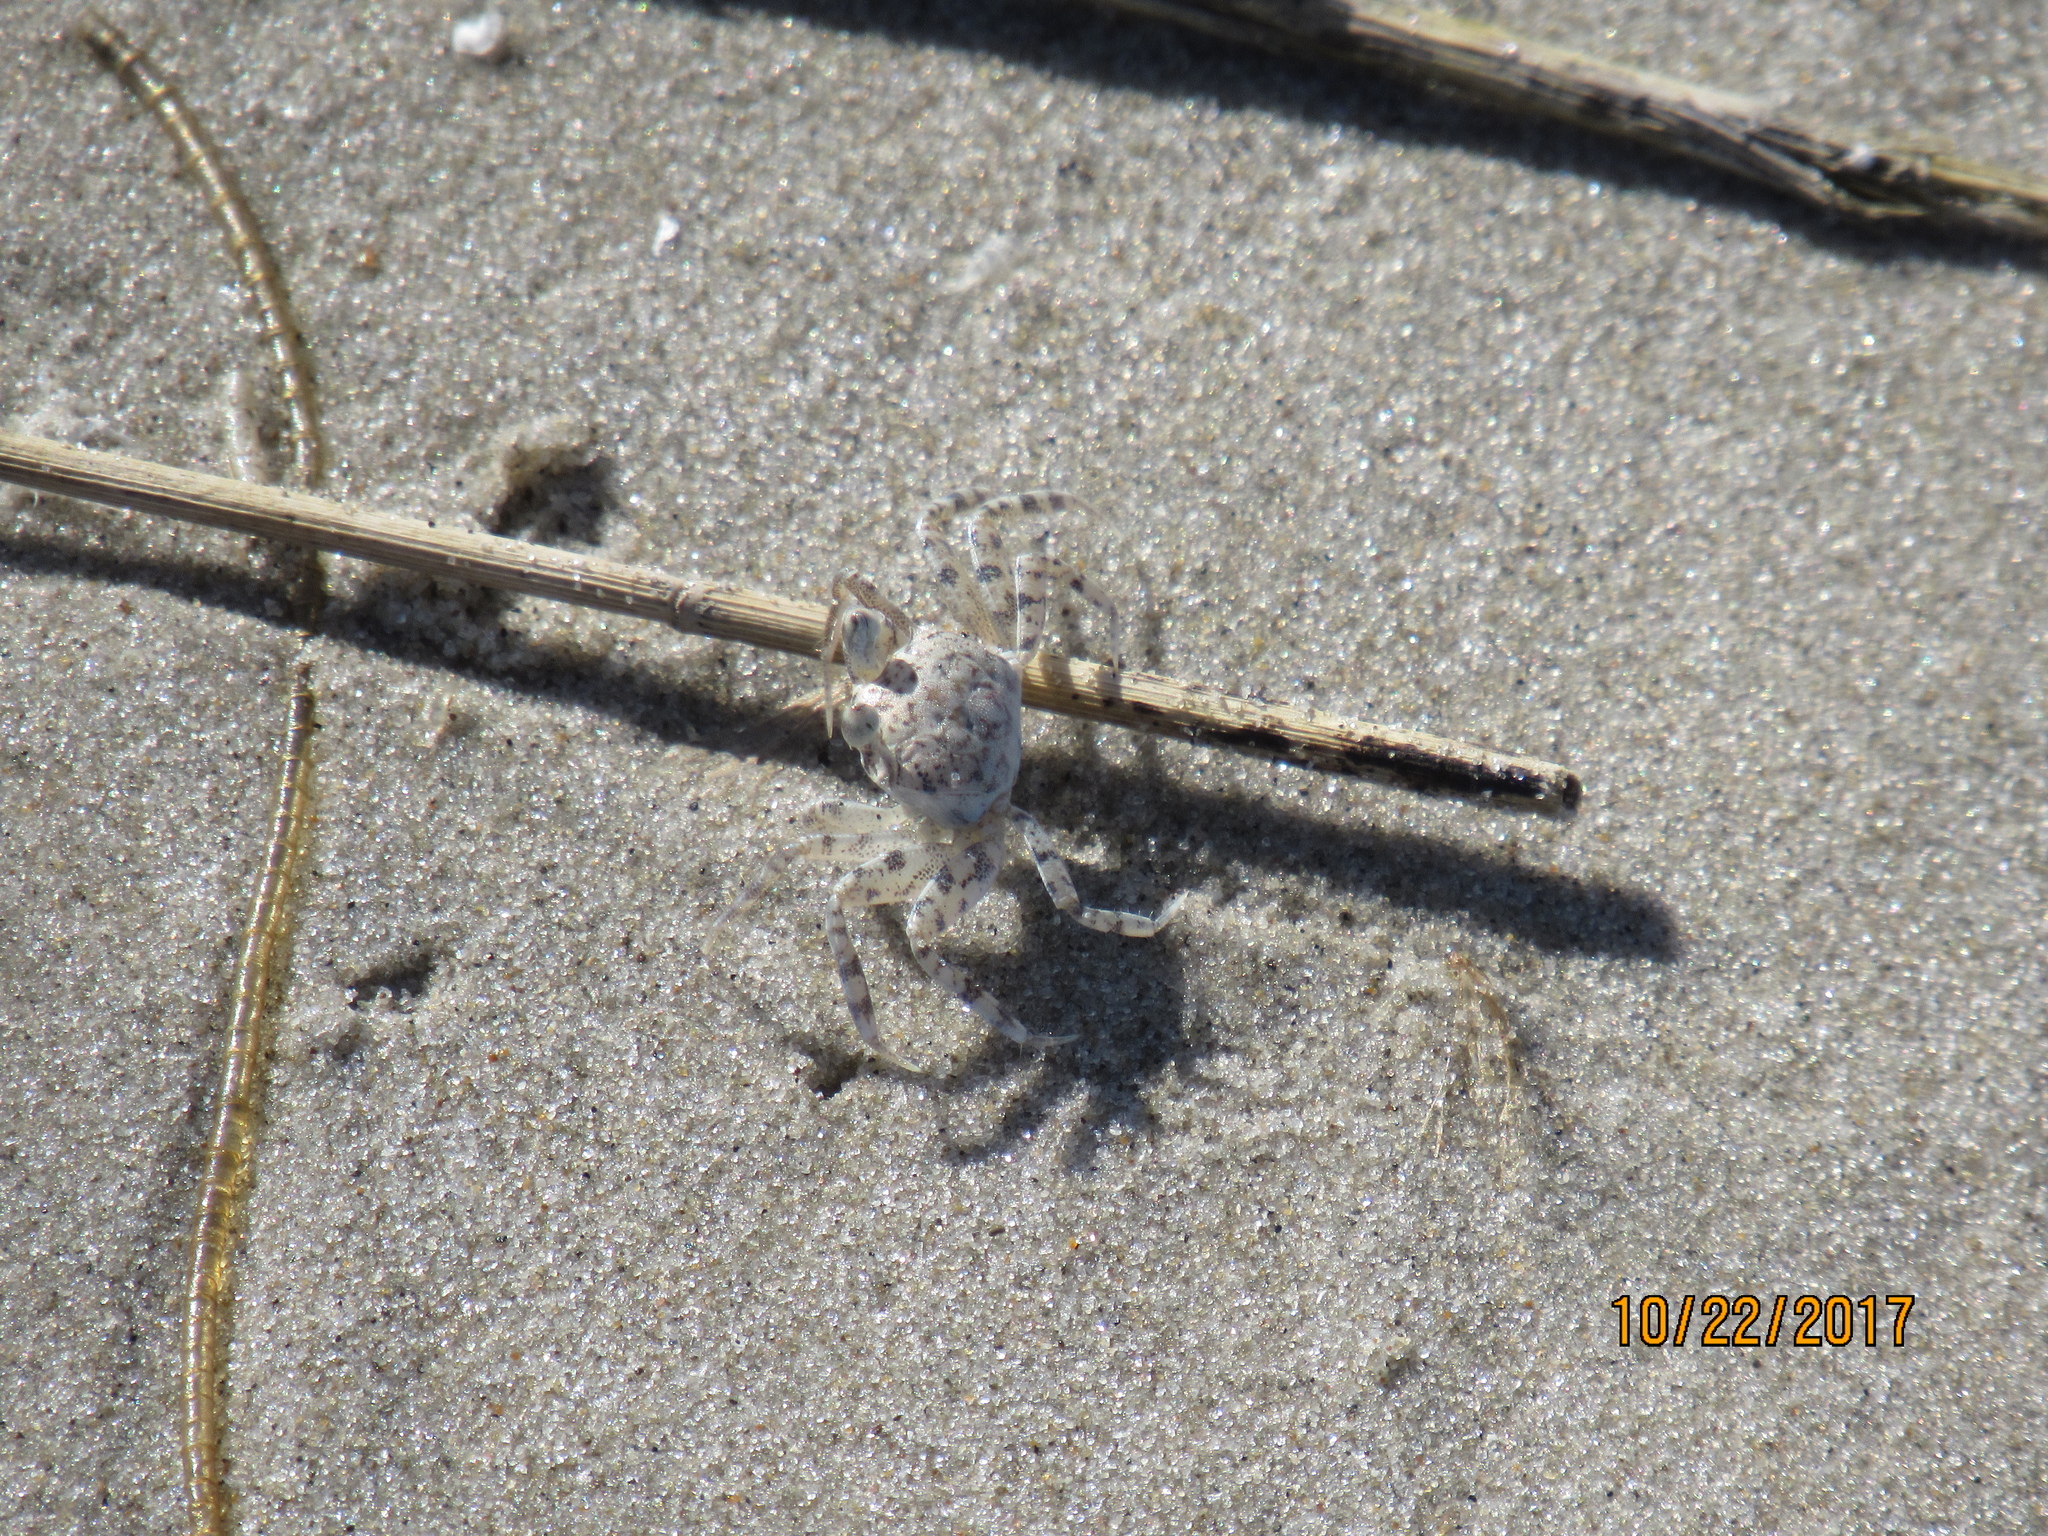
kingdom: Animalia
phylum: Arthropoda
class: Malacostraca
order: Decapoda
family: Ocypodidae
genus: Ocypode
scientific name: Ocypode quadrata
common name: Ghost crab
